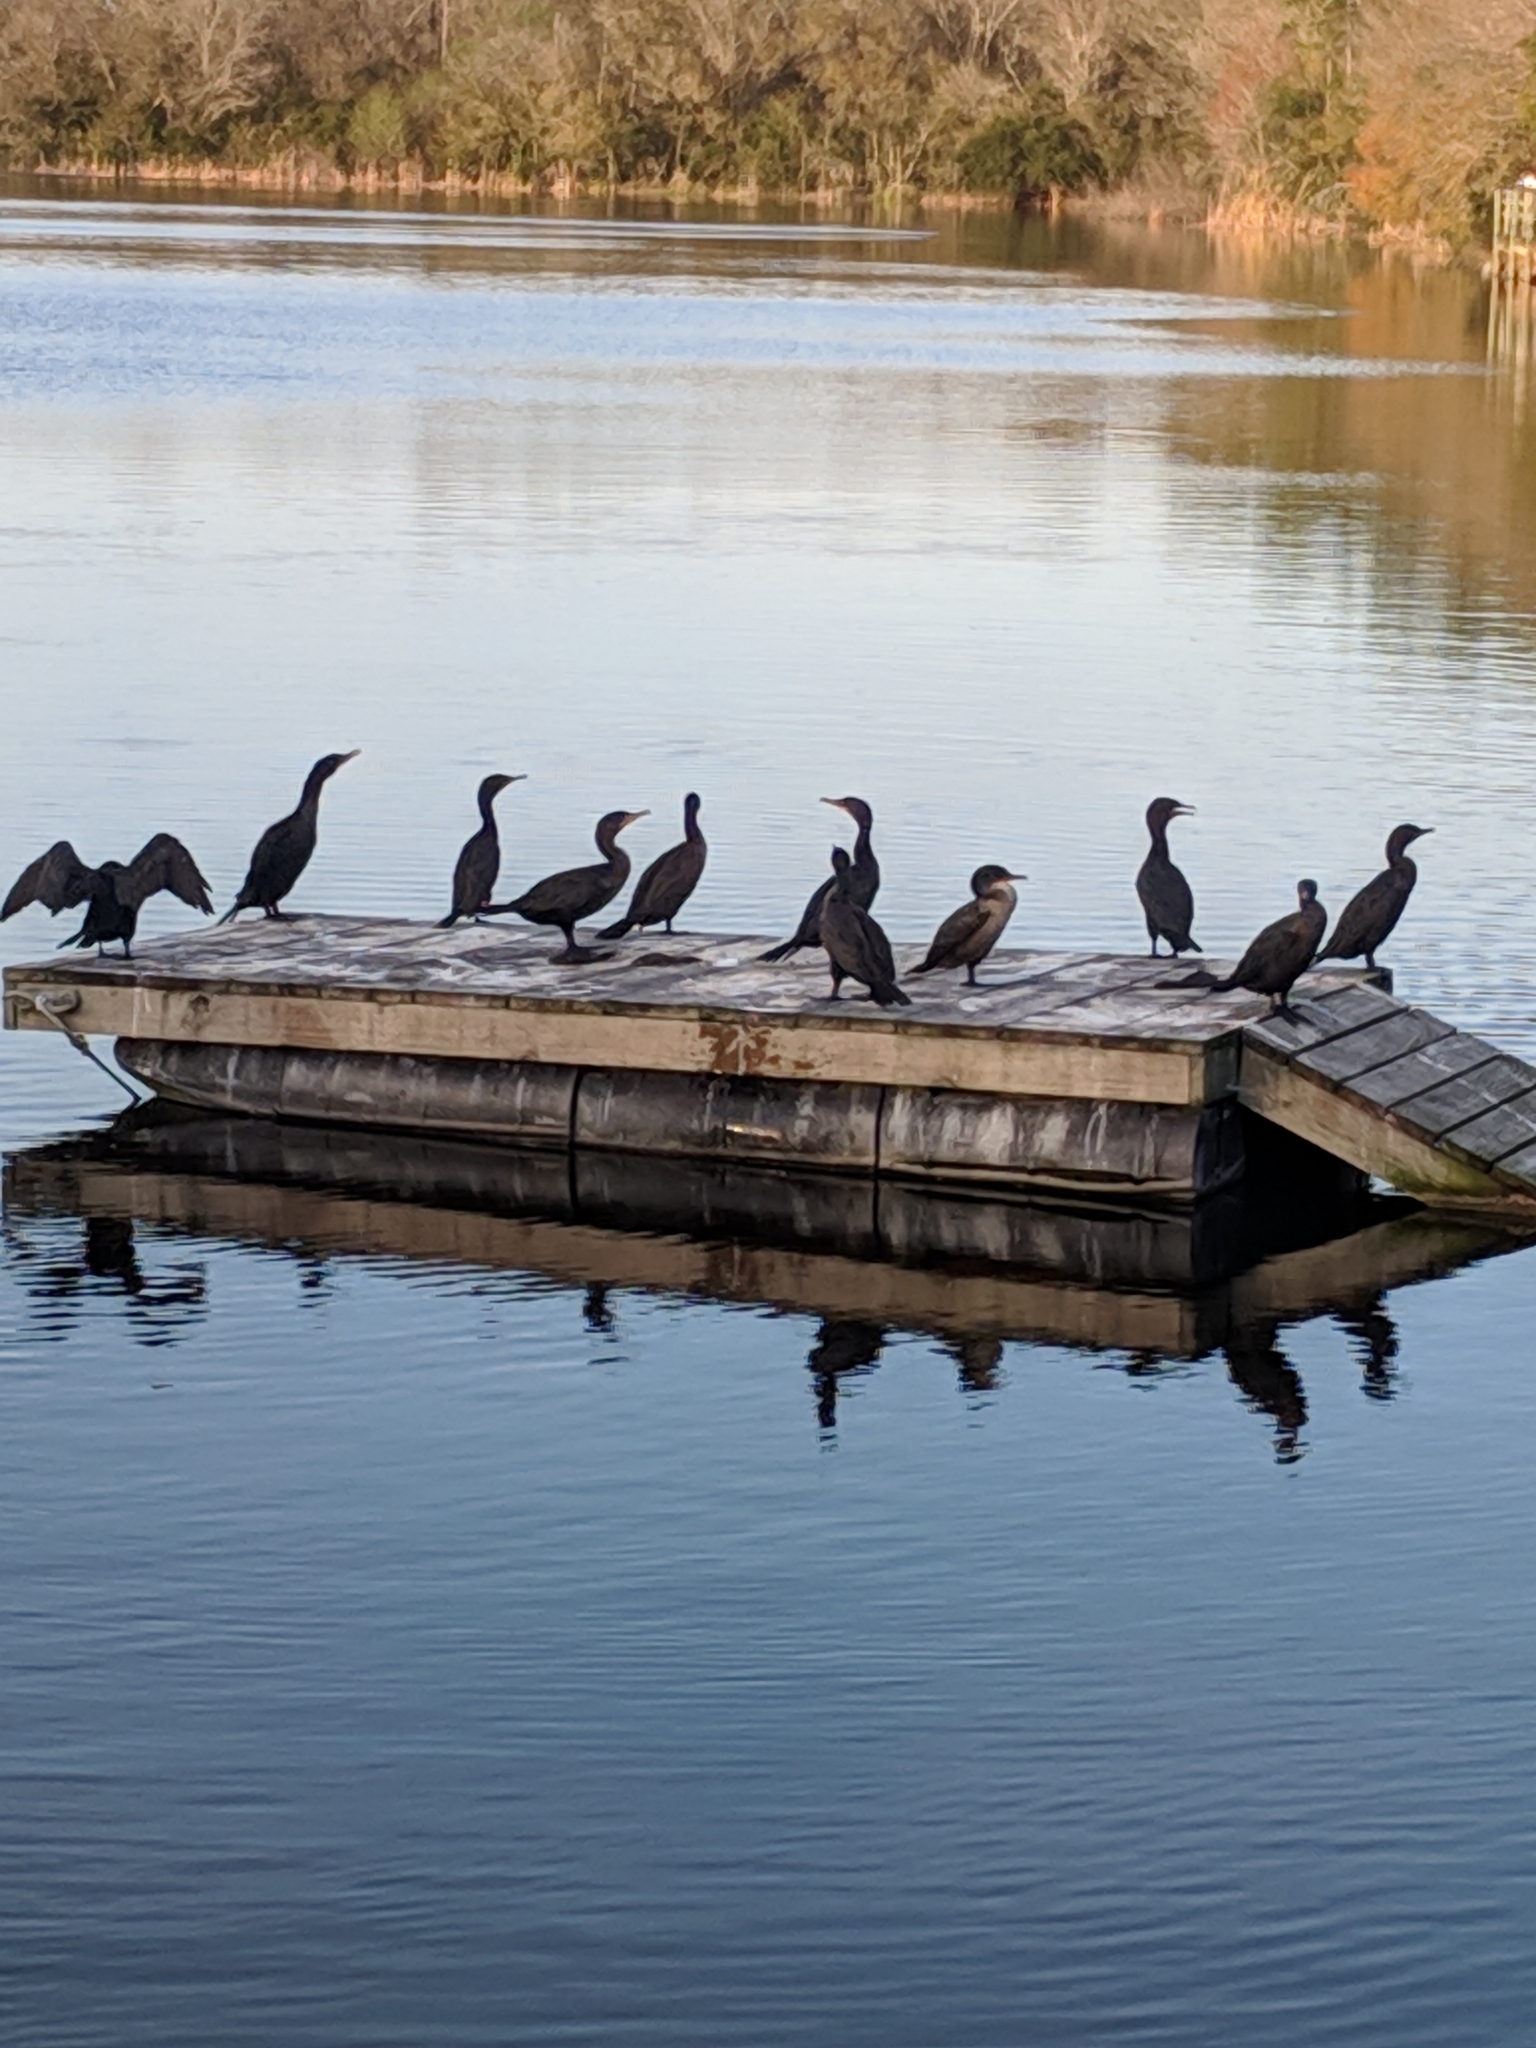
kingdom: Animalia
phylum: Chordata
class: Aves
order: Suliformes
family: Phalacrocoracidae
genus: Phalacrocorax
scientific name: Phalacrocorax auritus
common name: Double-crested cormorant
